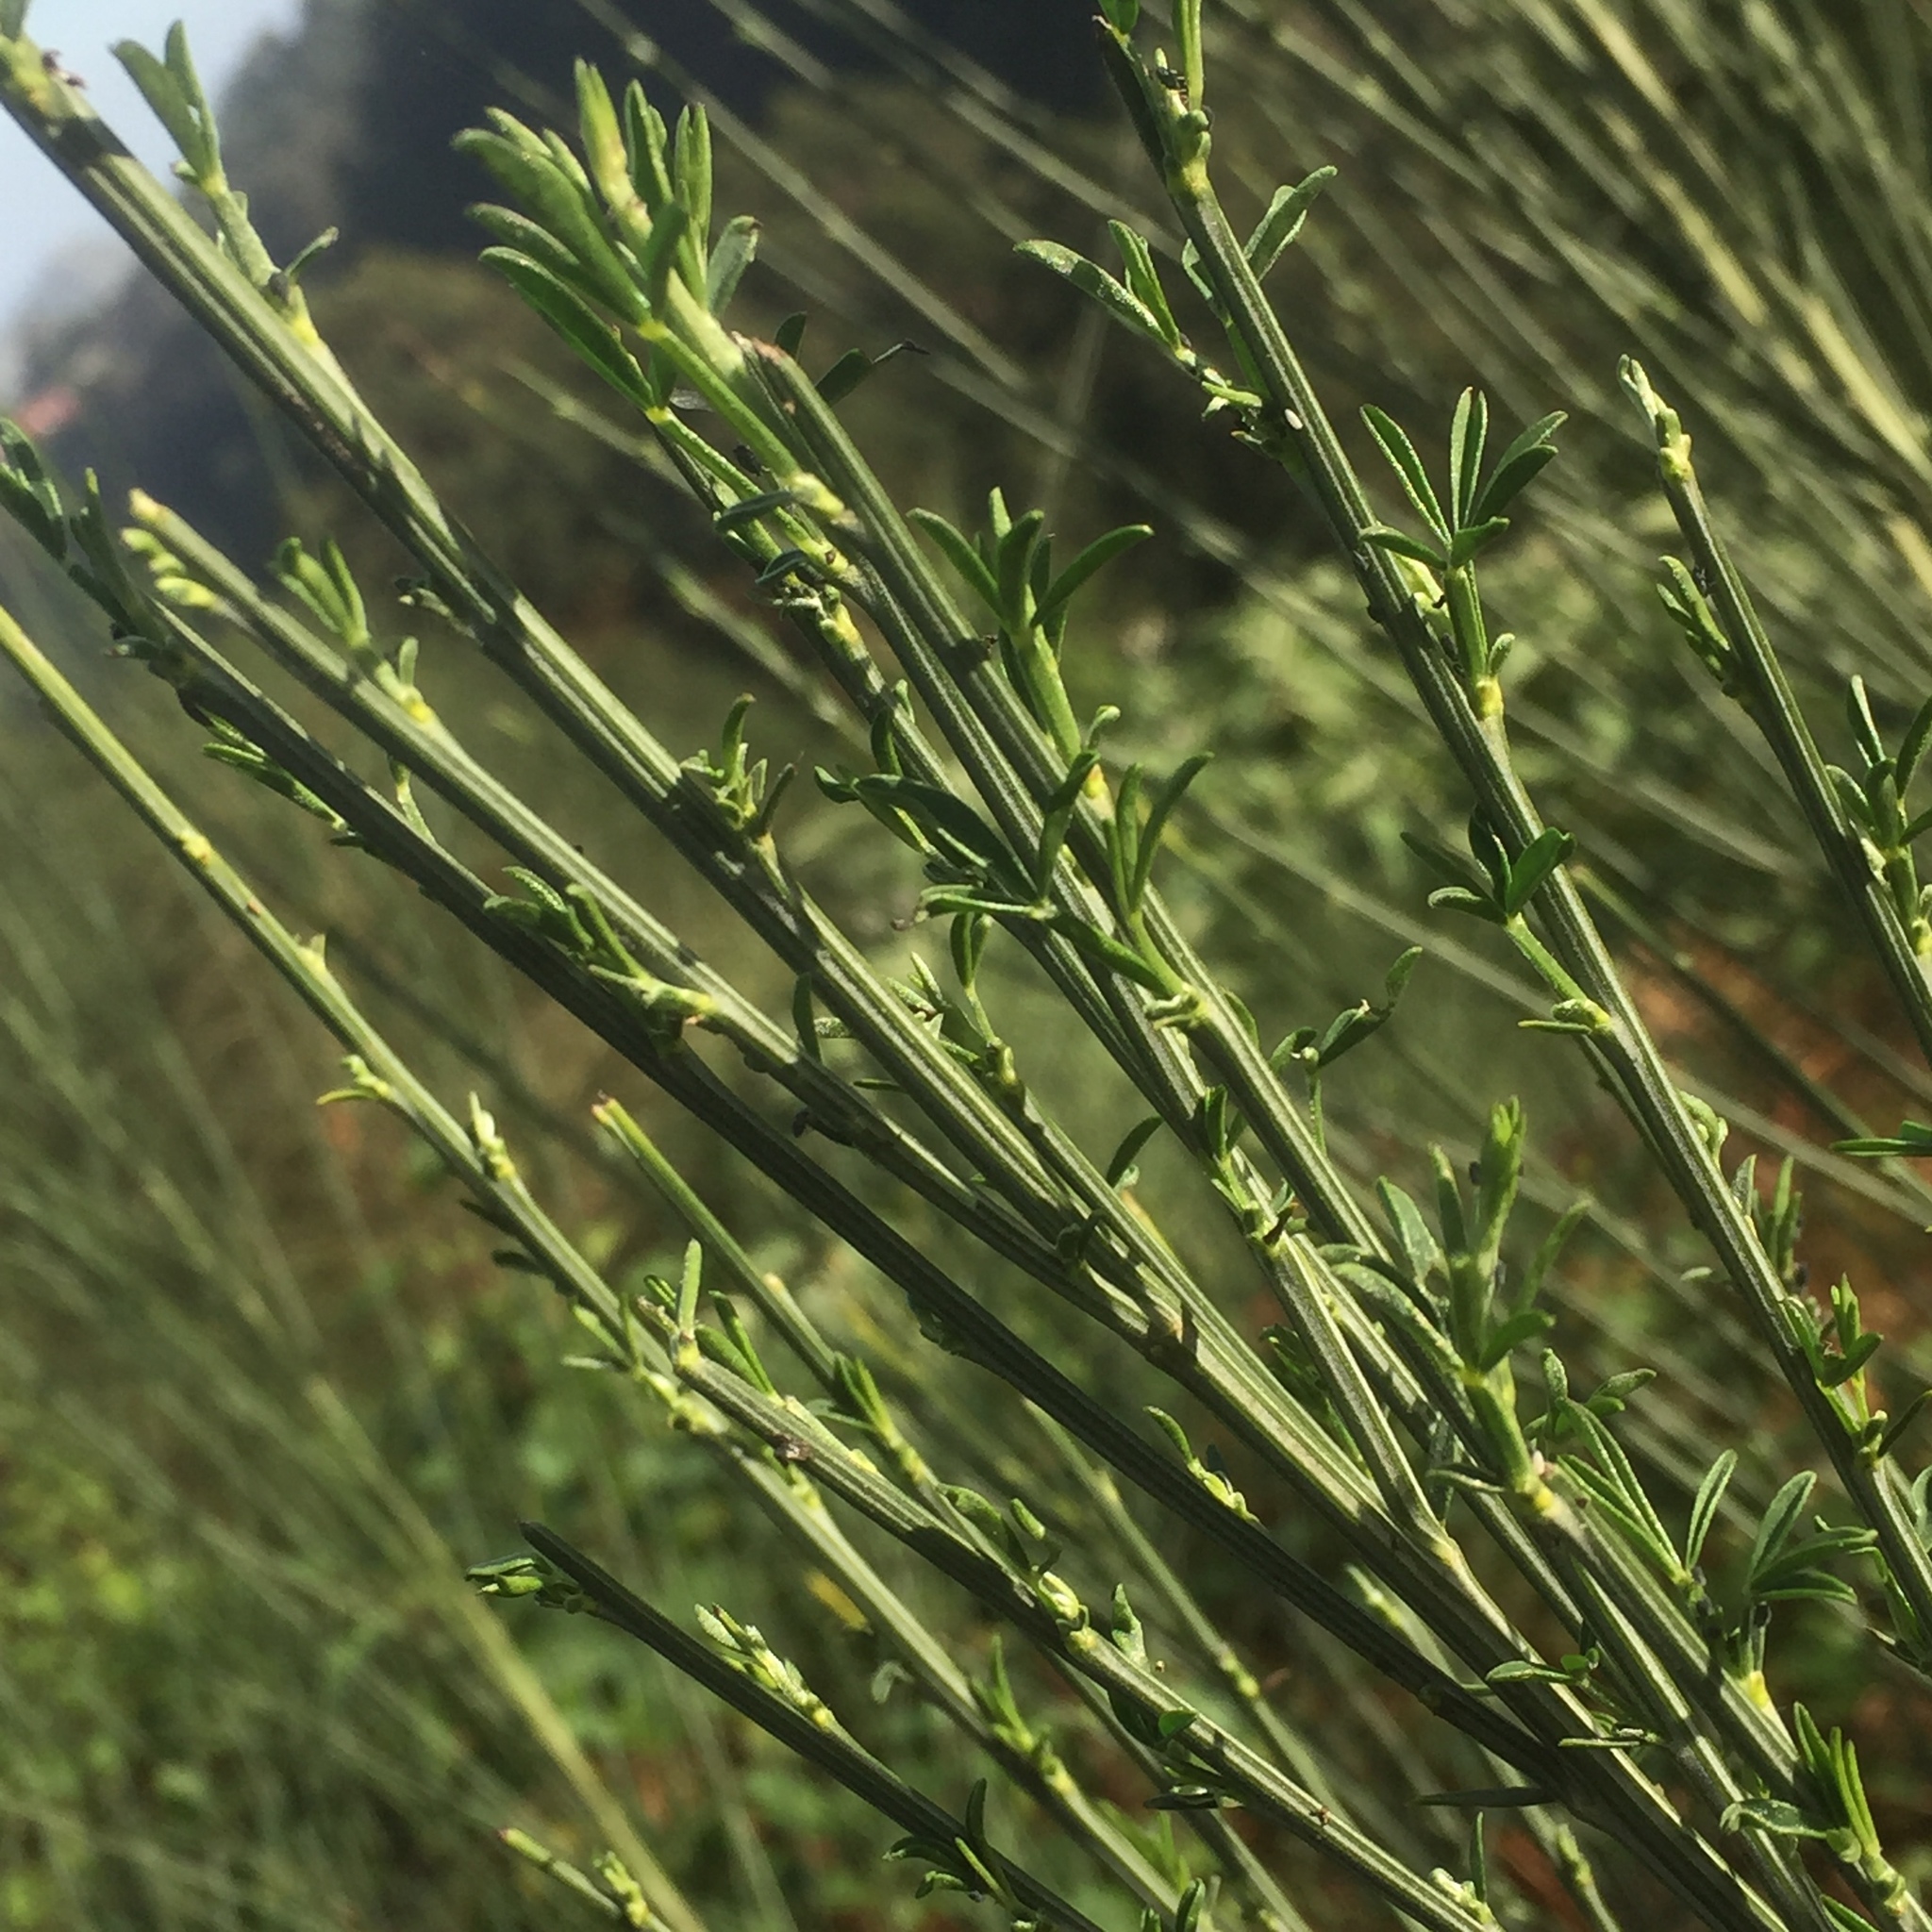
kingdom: Plantae
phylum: Tracheophyta
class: Magnoliopsida
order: Fabales
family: Fabaceae
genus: Cytisus
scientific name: Cytisus scoparius
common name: Scotch broom
